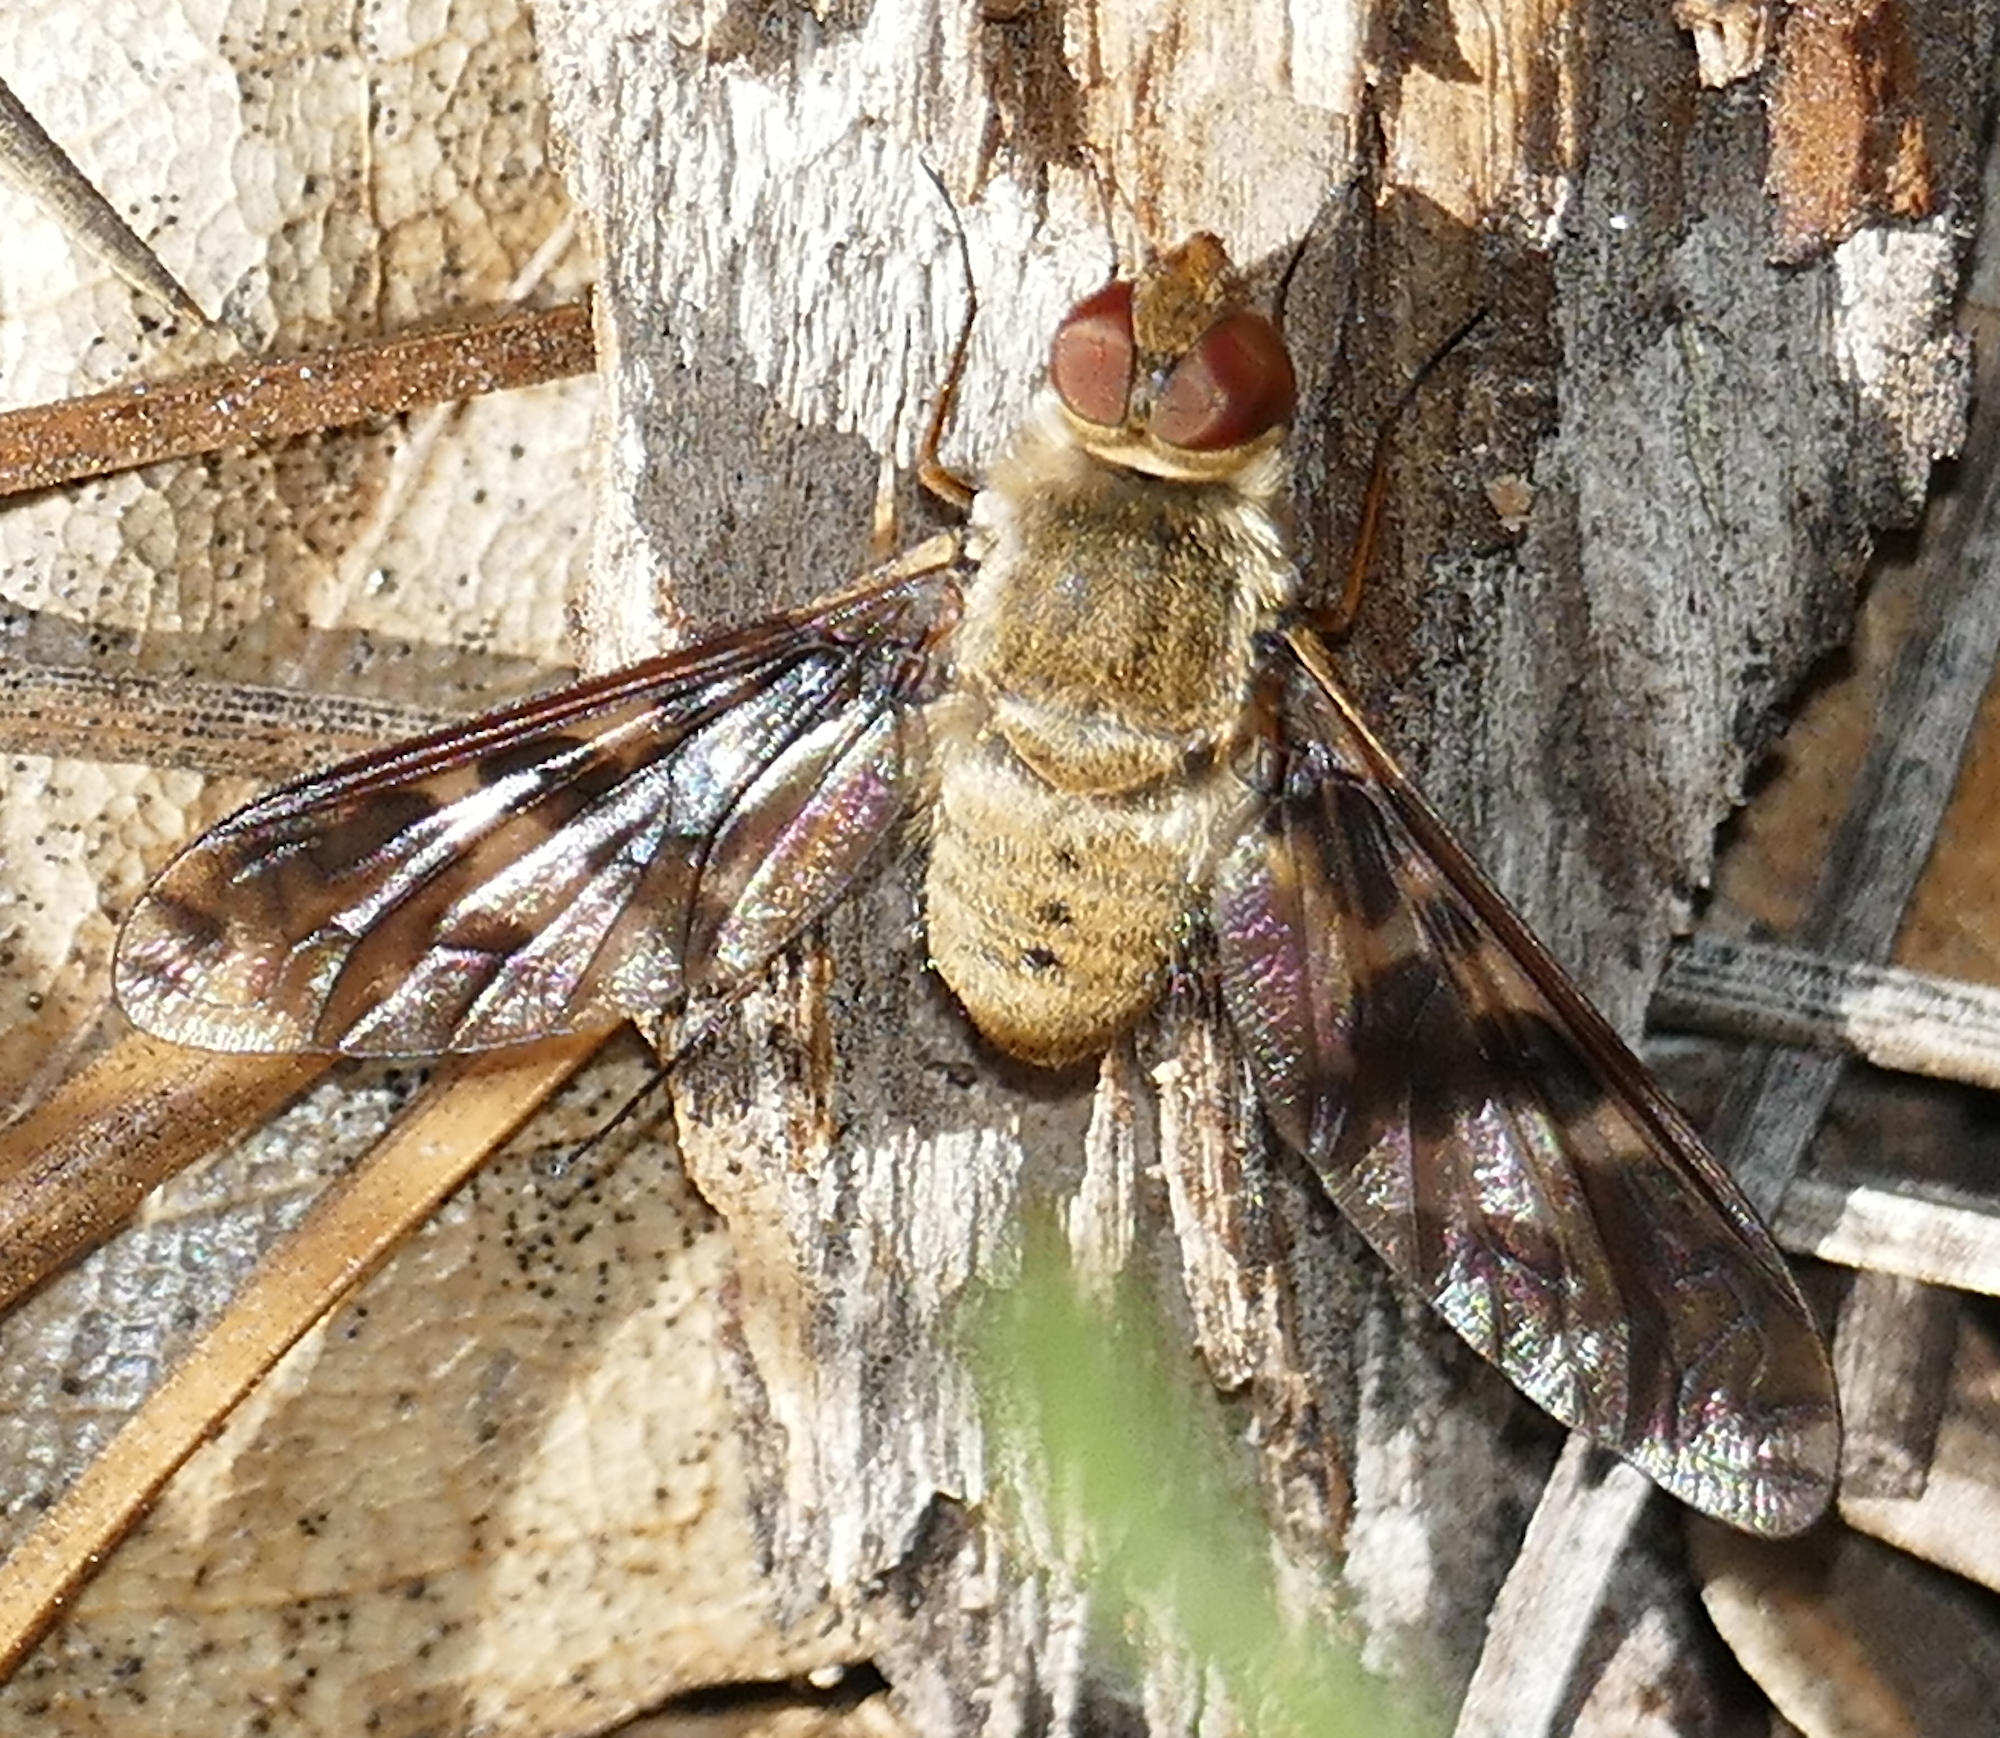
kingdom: Animalia
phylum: Arthropoda
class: Insecta
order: Diptera
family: Bombyliidae
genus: Dipalta
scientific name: Dipalta serpentina
